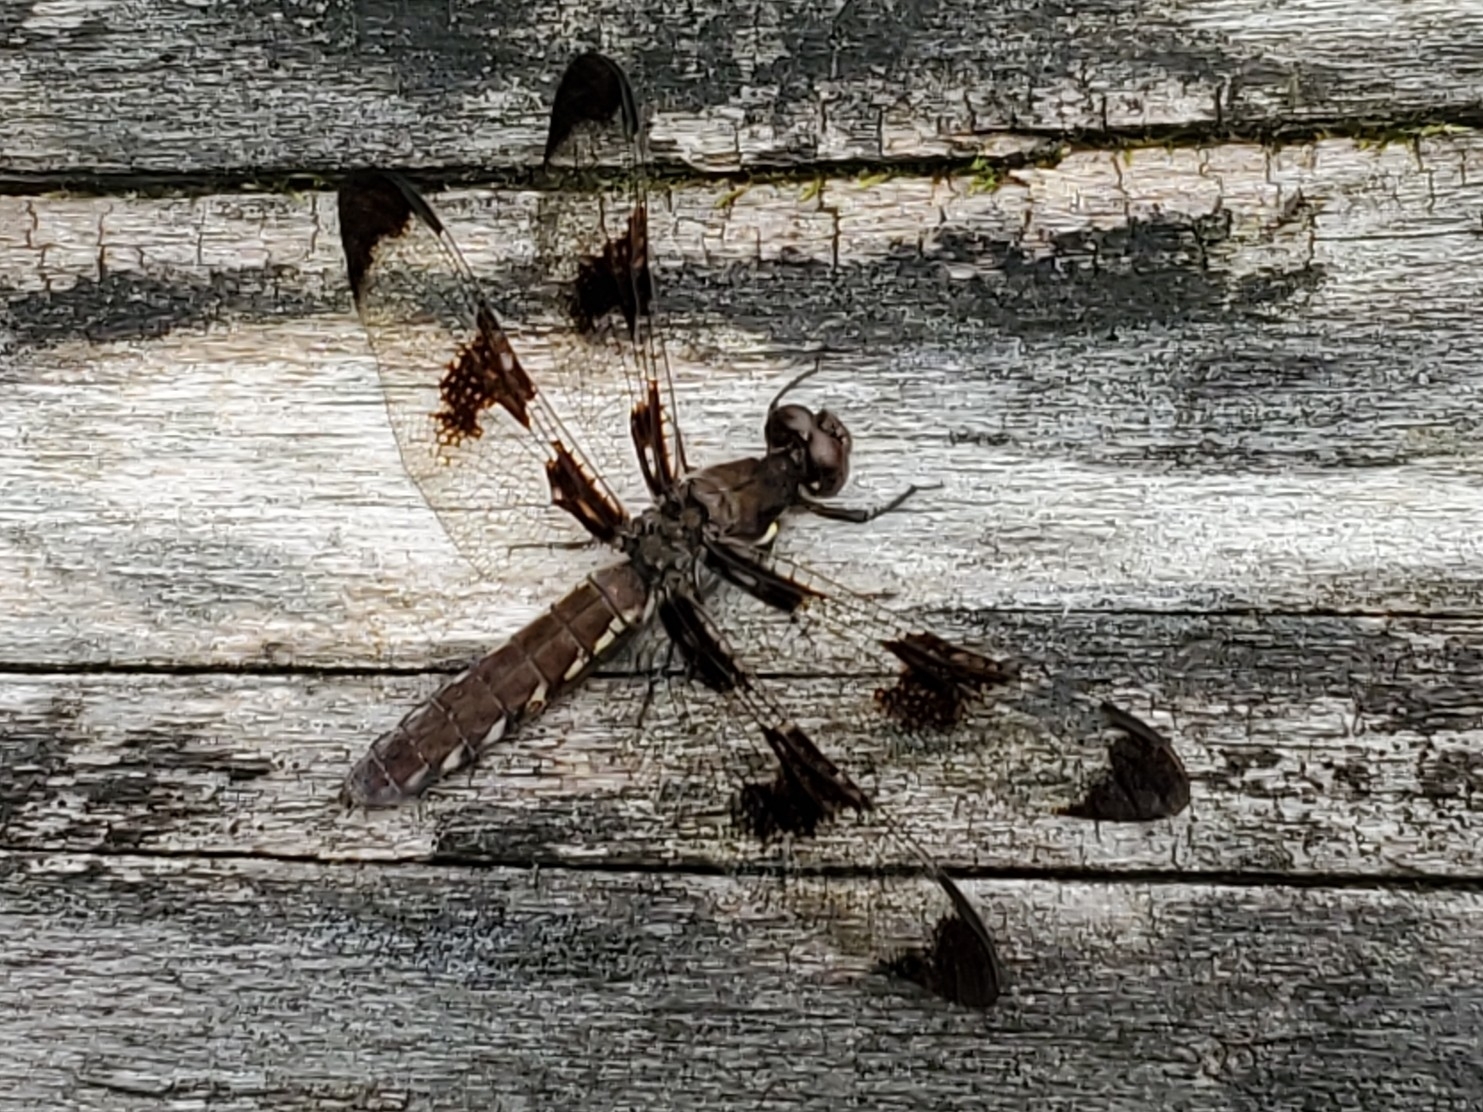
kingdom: Animalia
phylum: Arthropoda
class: Insecta
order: Odonata
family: Libellulidae
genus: Plathemis
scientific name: Plathemis lydia
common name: Common whitetail
